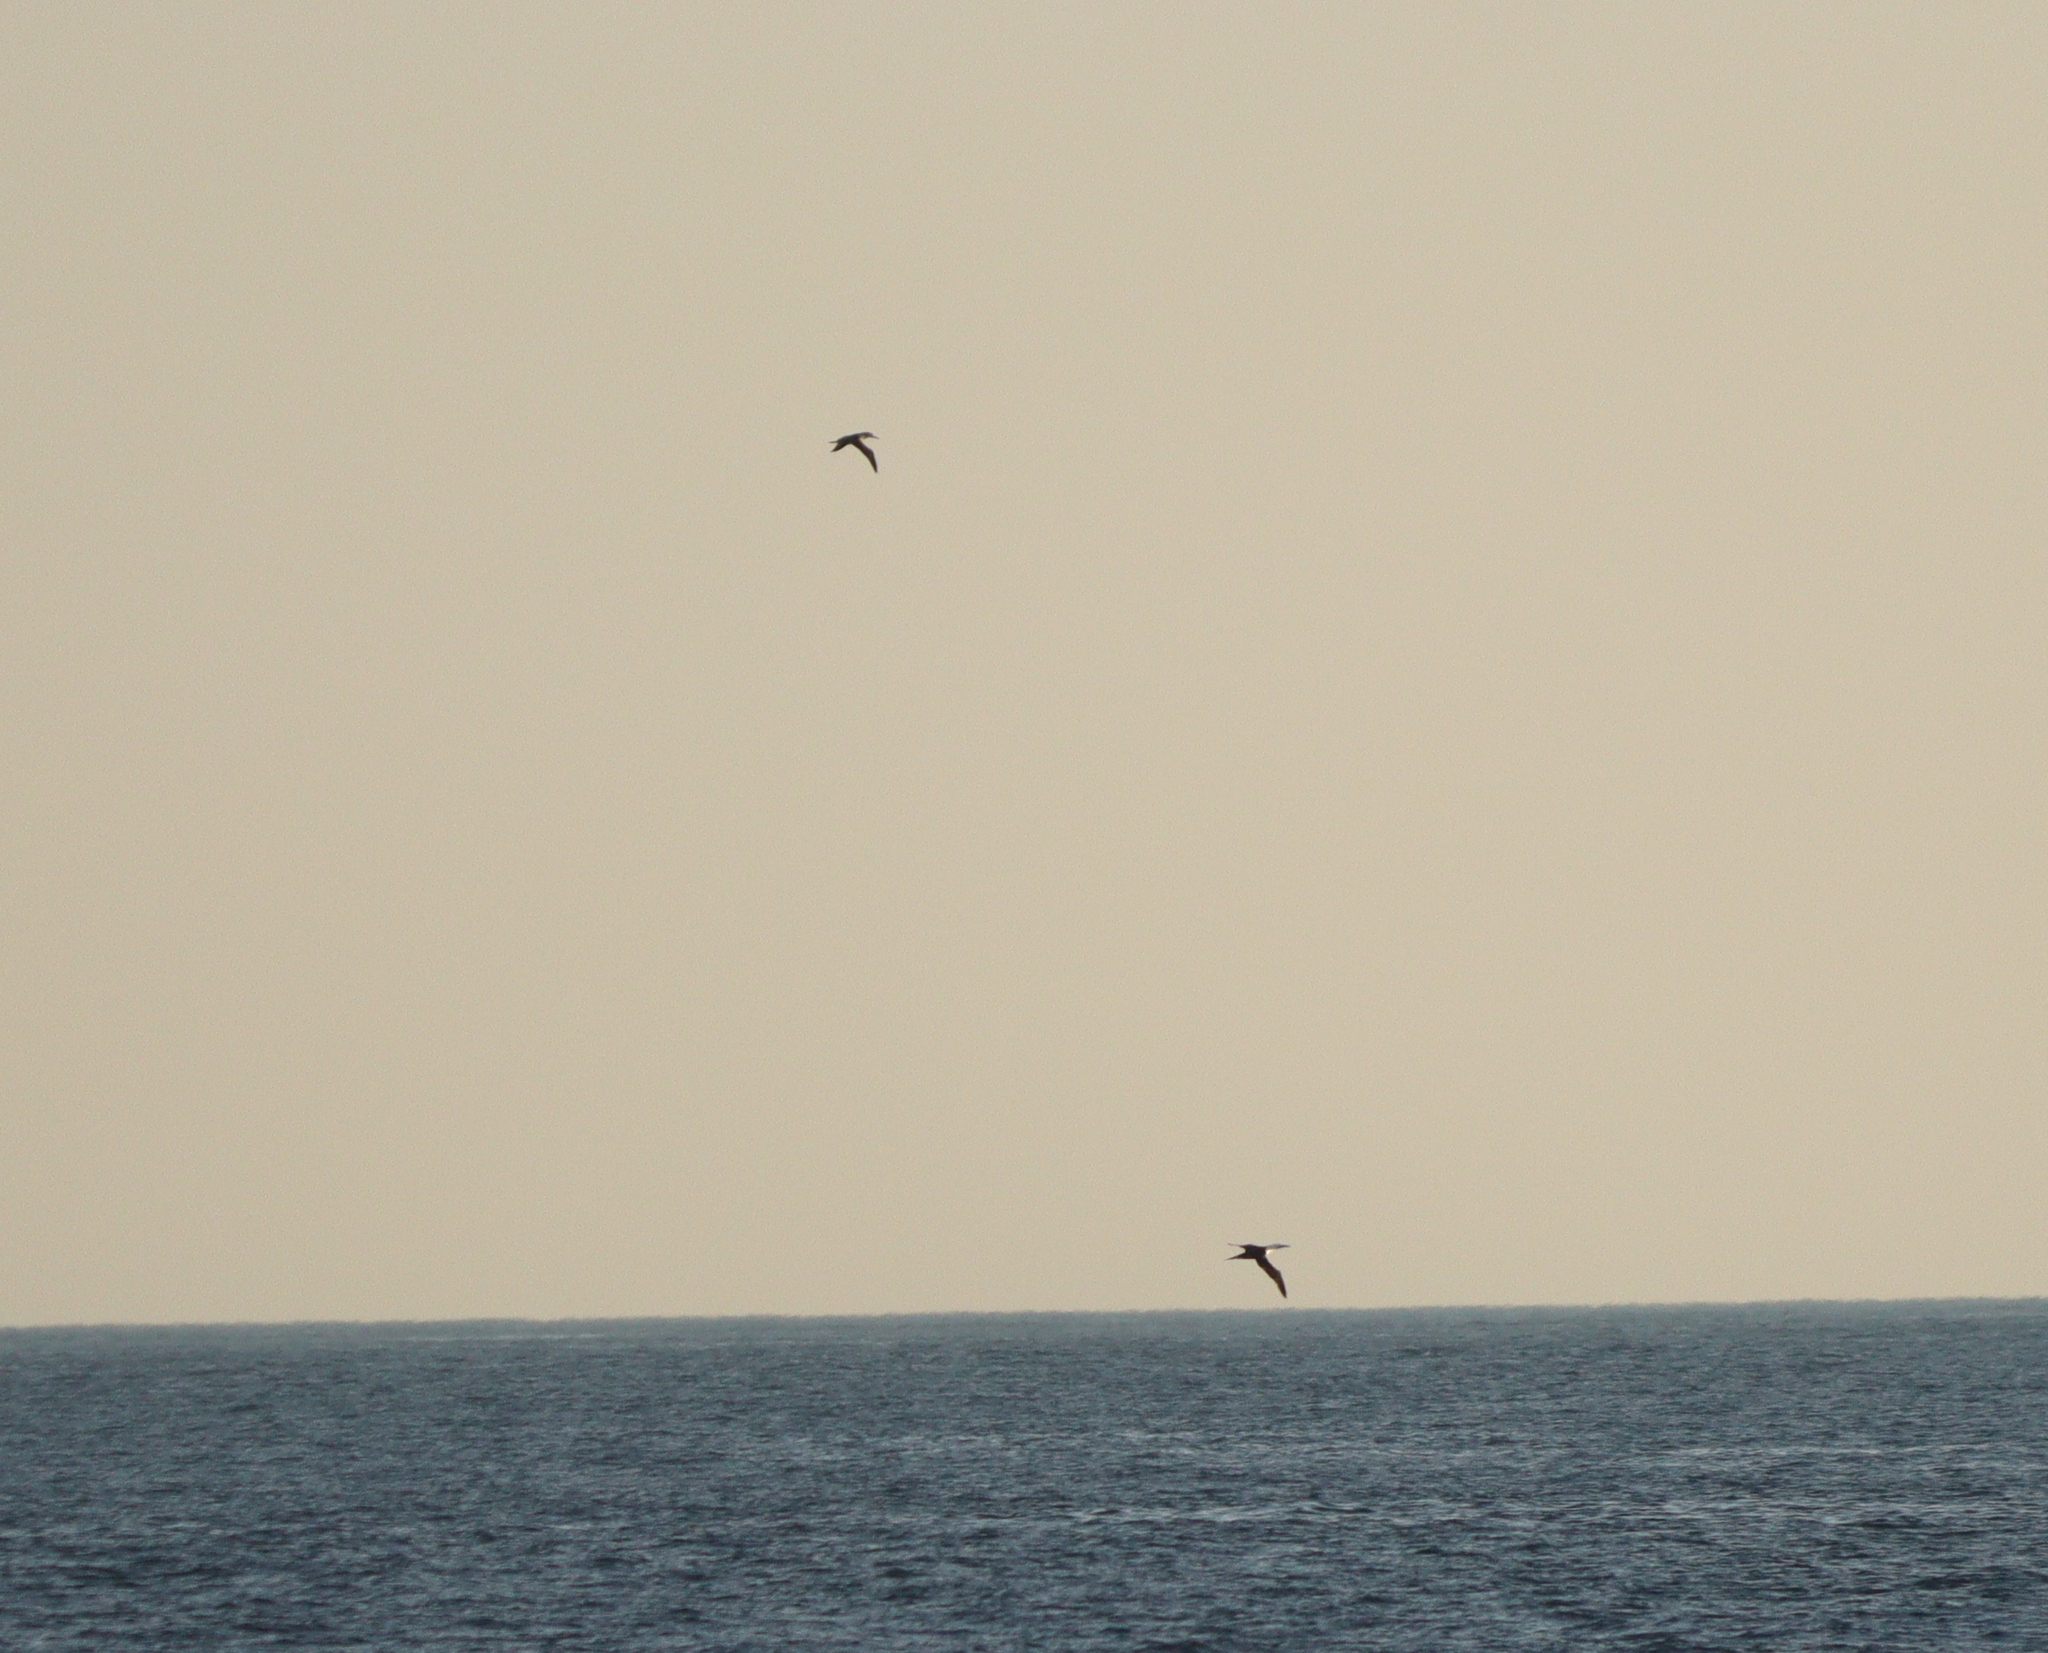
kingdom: Animalia
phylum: Chordata
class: Aves
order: Suliformes
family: Sulidae
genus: Morus
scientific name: Morus bassanus
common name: Northern gannet
